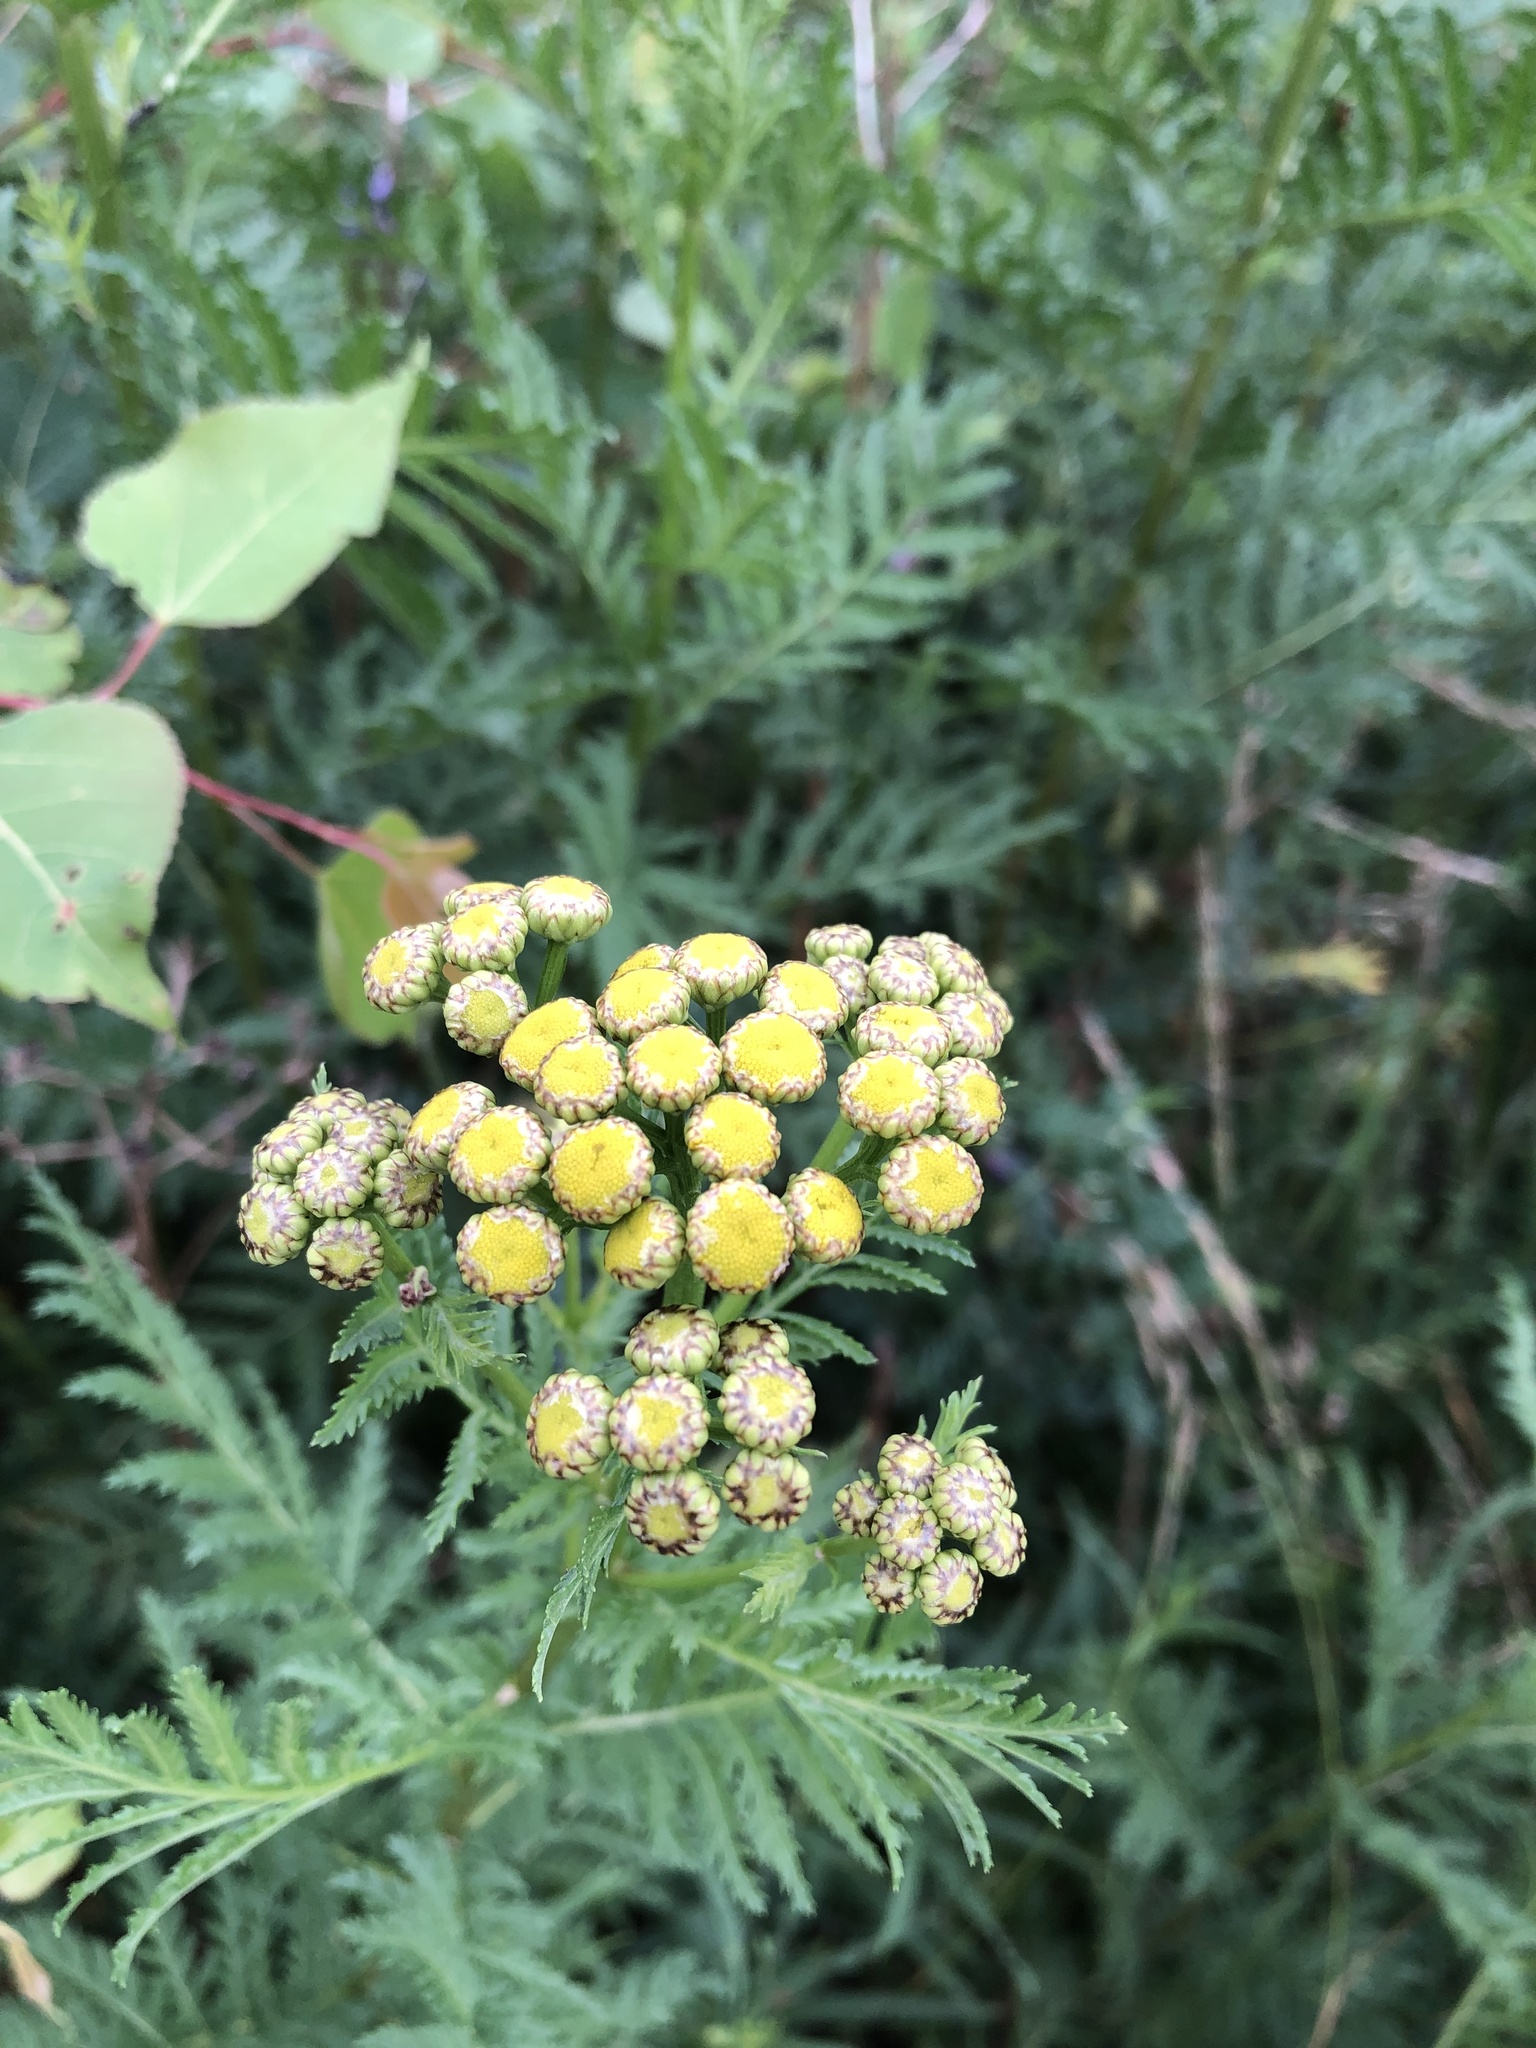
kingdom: Plantae
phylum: Tracheophyta
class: Magnoliopsida
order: Asterales
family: Asteraceae
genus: Tanacetum
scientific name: Tanacetum vulgare
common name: Common tansy
